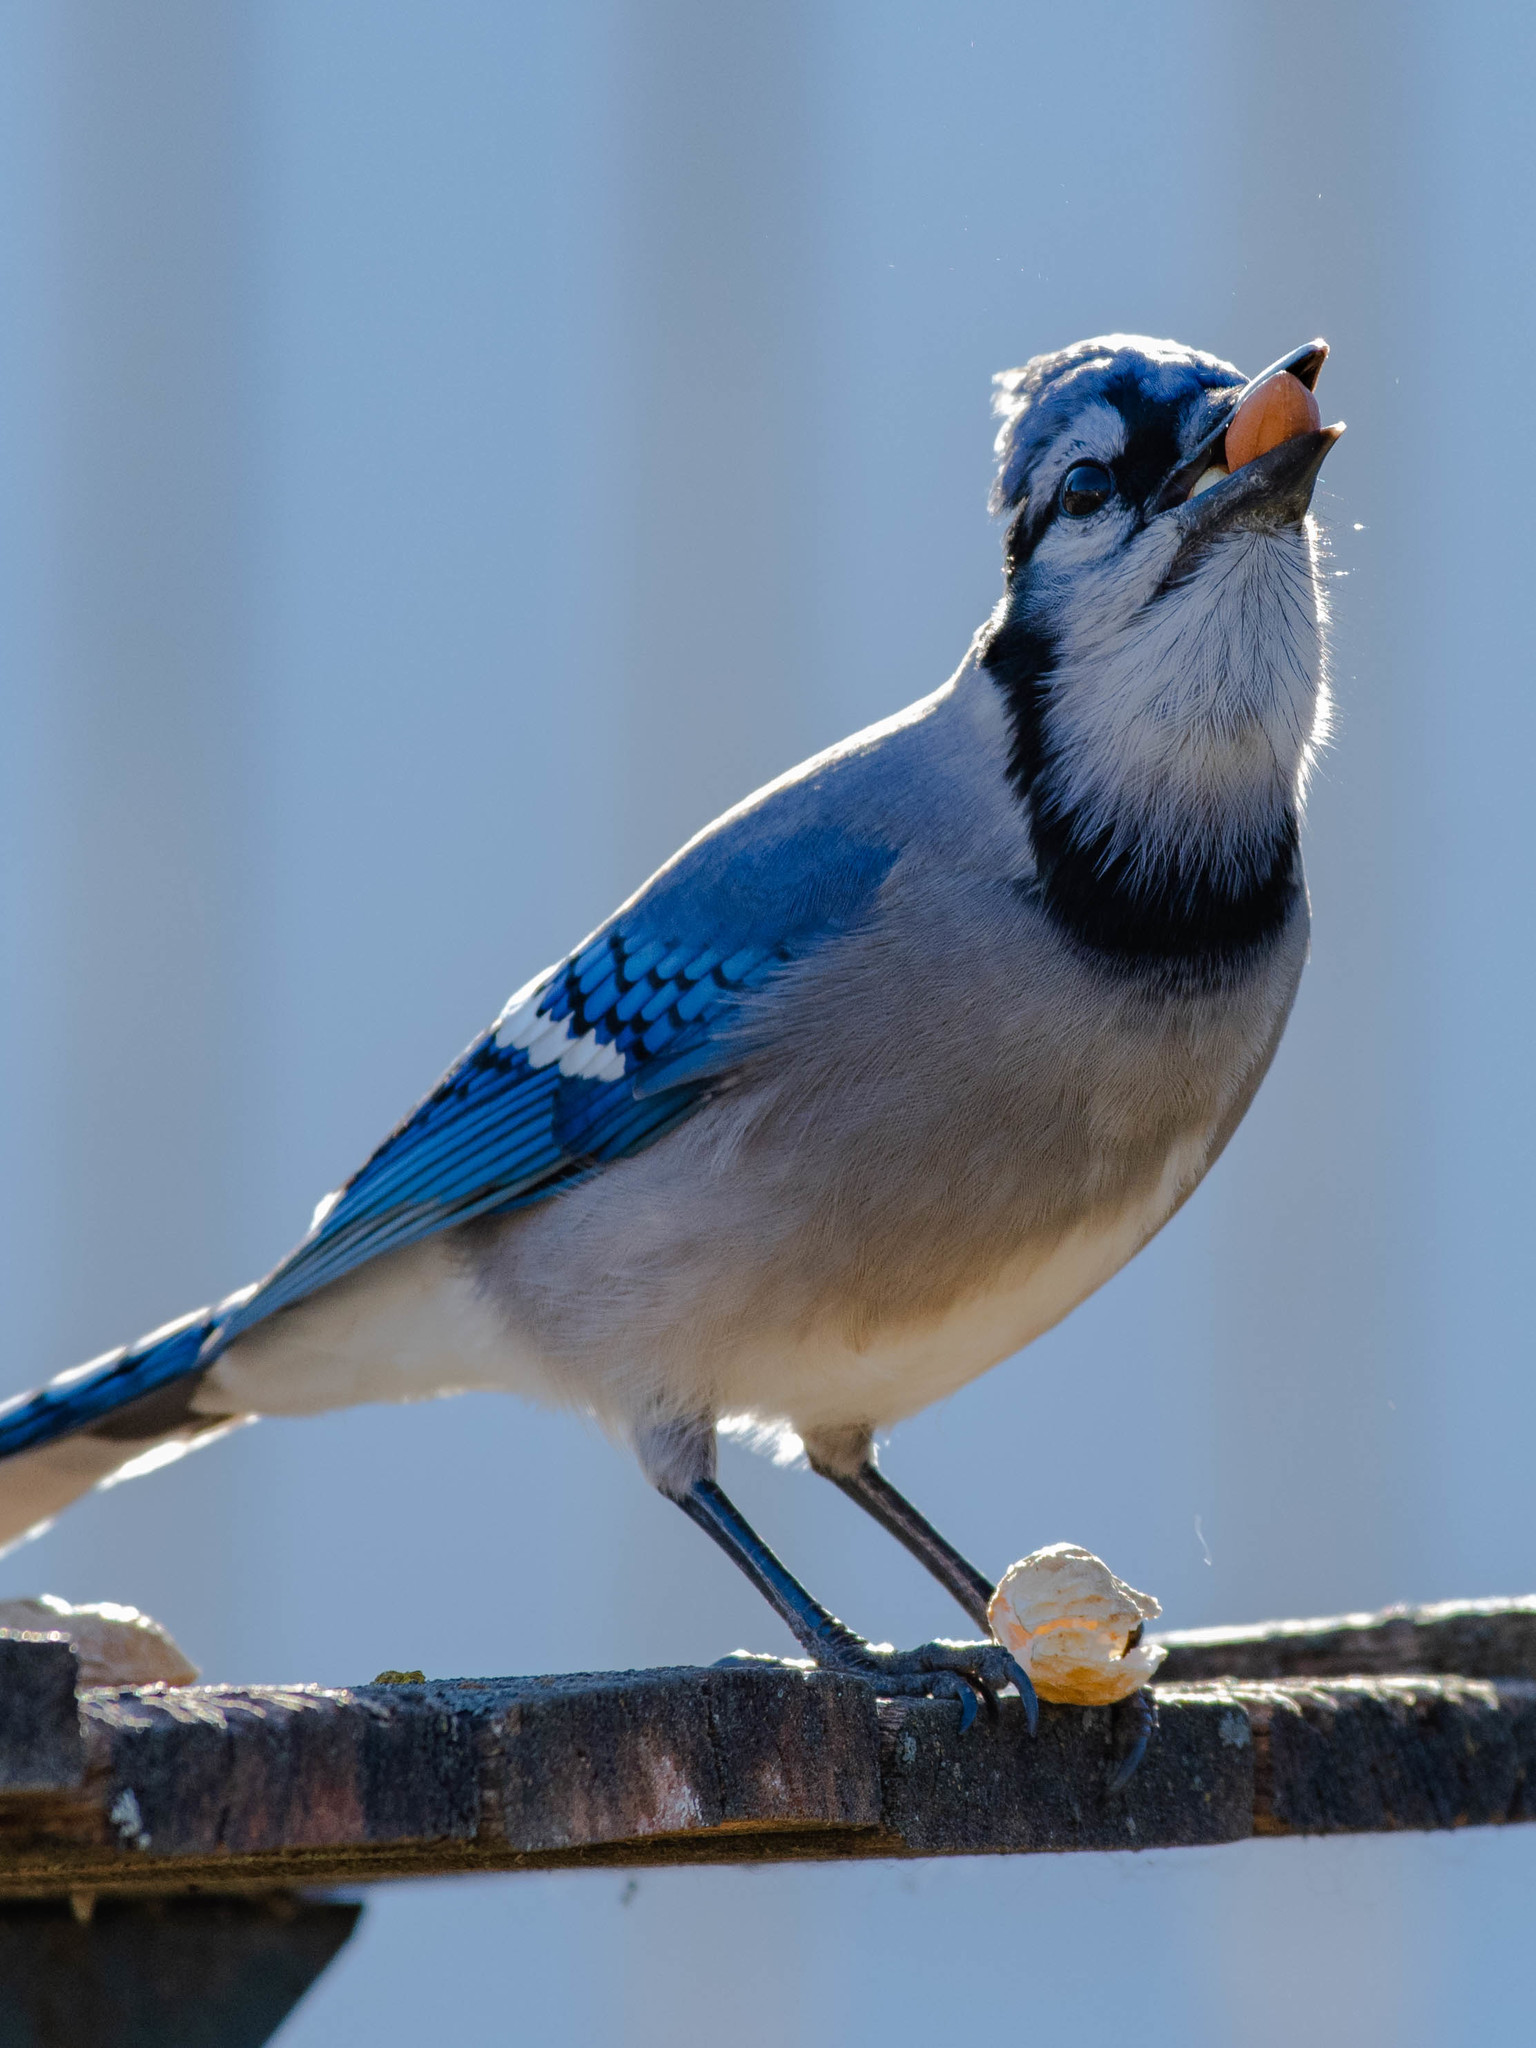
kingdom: Animalia
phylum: Chordata
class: Aves
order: Passeriformes
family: Corvidae
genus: Cyanocitta
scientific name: Cyanocitta cristata
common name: Blue jay
